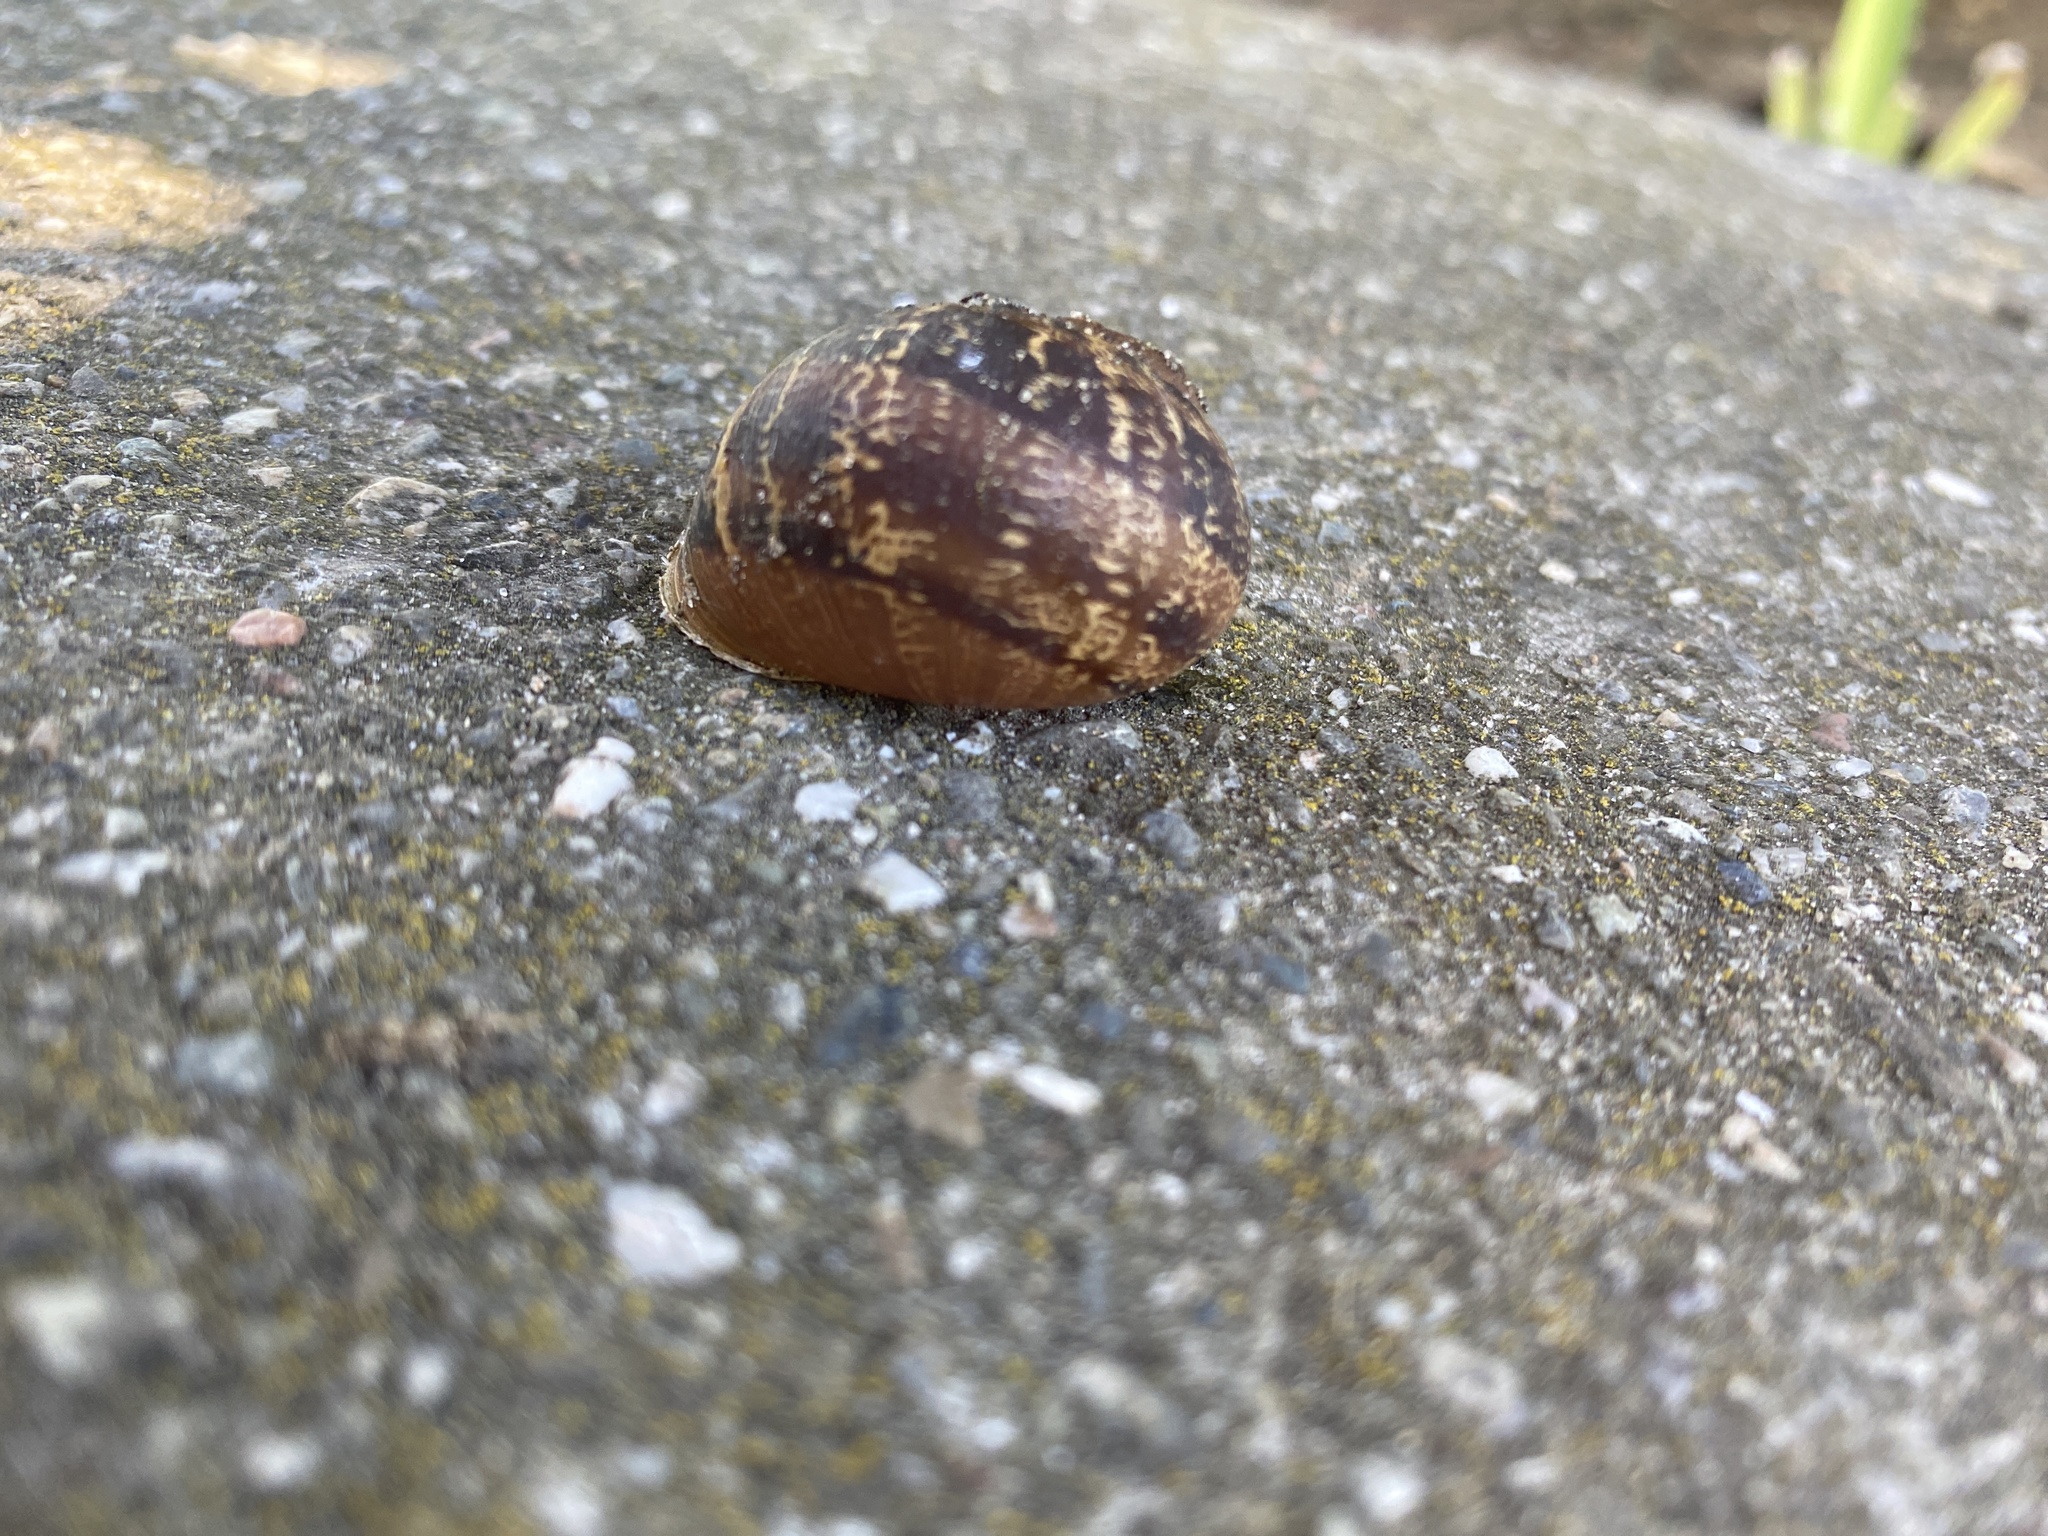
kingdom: Animalia
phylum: Mollusca
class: Gastropoda
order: Stylommatophora
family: Helicidae
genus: Cornu
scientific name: Cornu aspersum
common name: Brown garden snail
